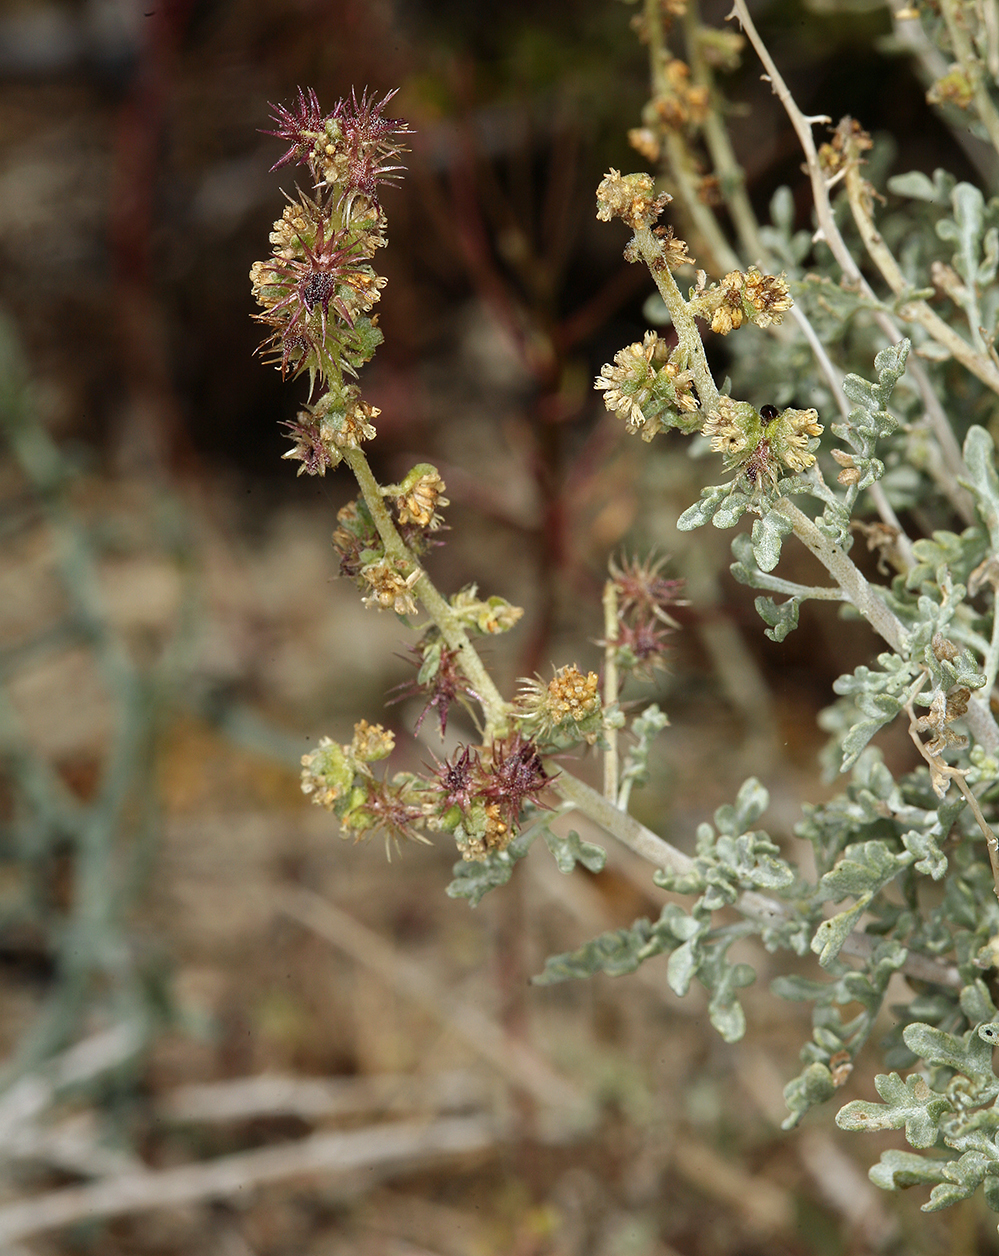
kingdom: Plantae
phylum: Tracheophyta
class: Magnoliopsida
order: Asterales
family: Asteraceae
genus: Ambrosia
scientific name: Ambrosia dumosa
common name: Bur-sage
